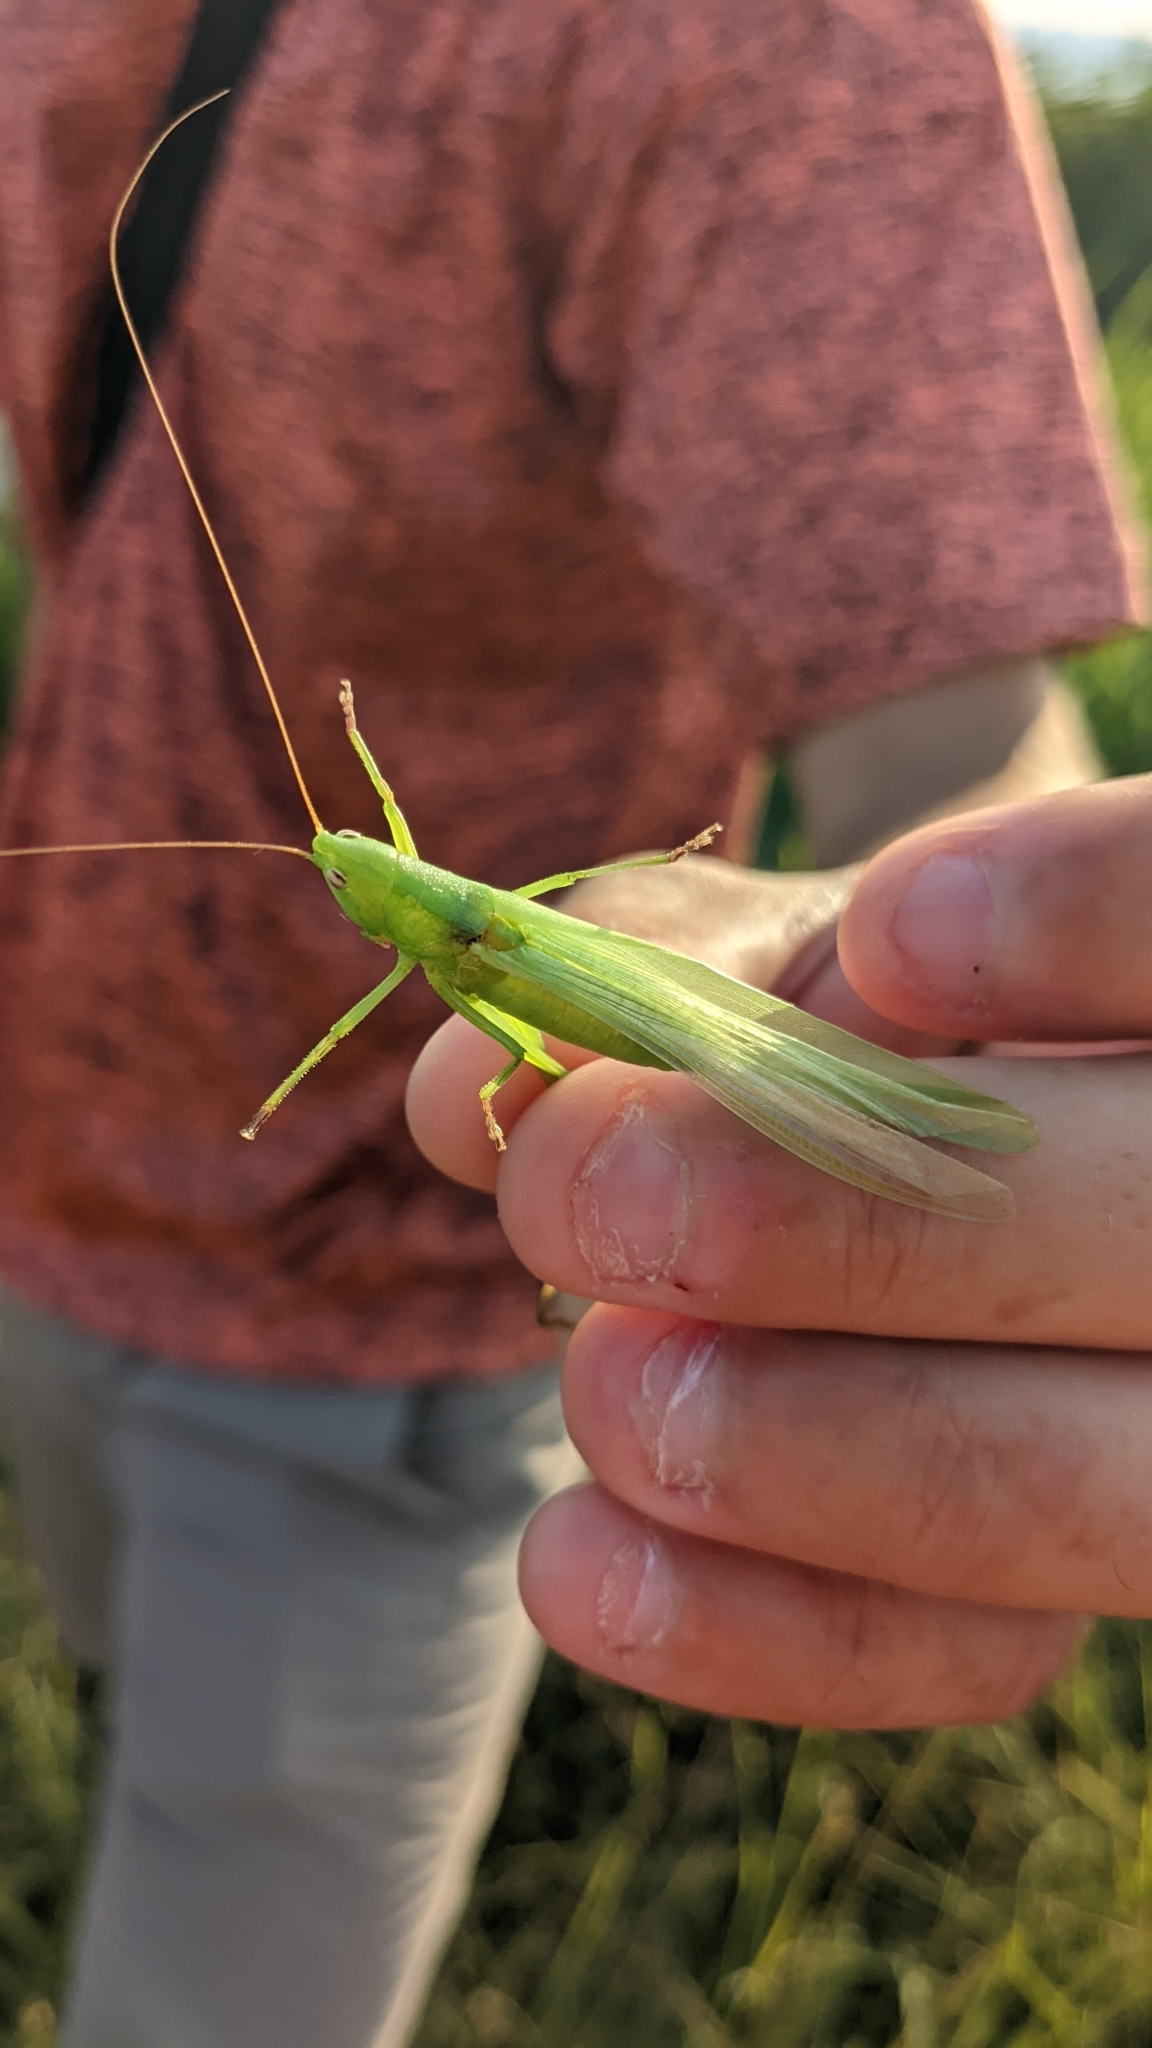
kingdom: Animalia
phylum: Arthropoda
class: Insecta
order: Orthoptera
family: Tettigoniidae
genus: Ruspolia
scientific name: Ruspolia nitidula
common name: Large conehead
